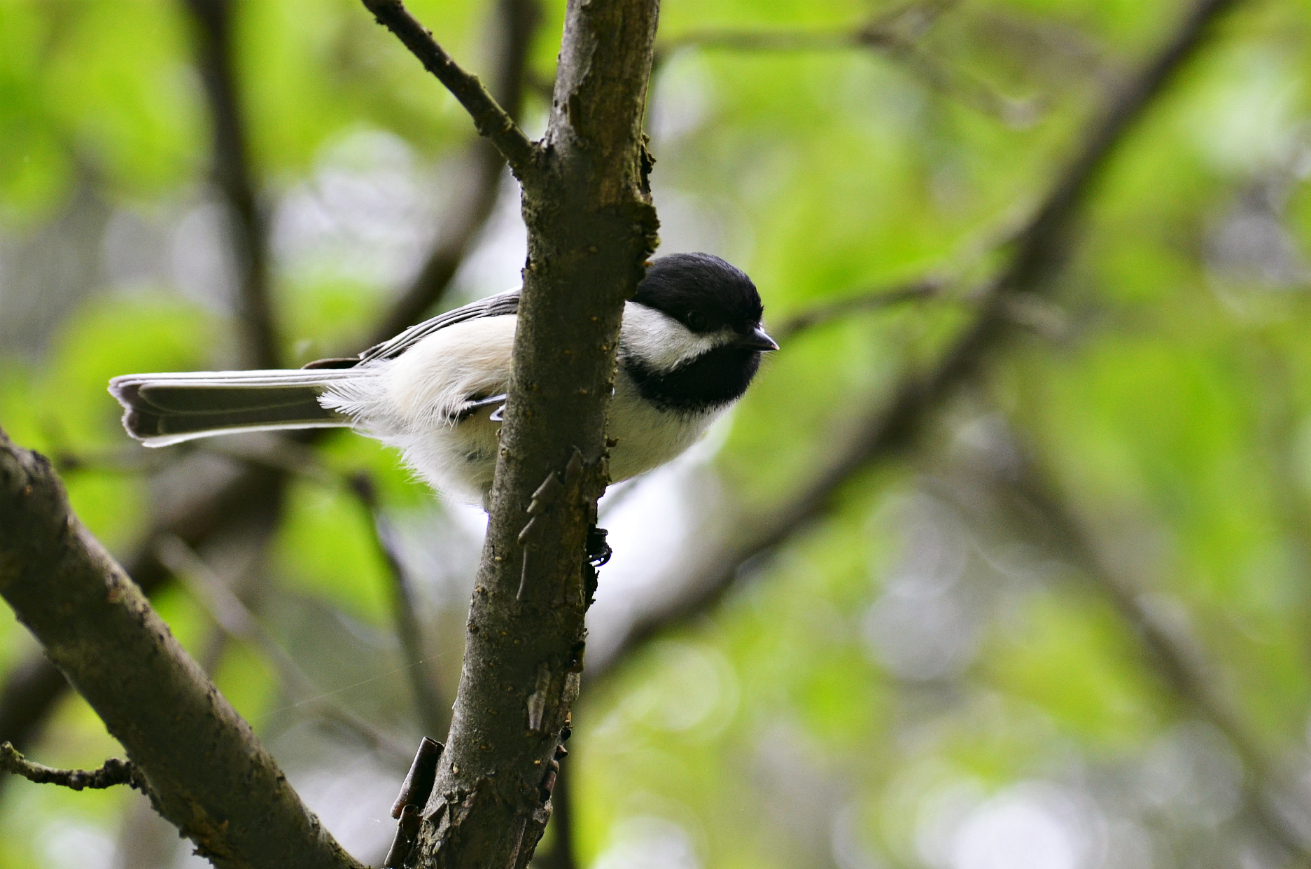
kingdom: Animalia
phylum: Chordata
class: Aves
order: Passeriformes
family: Paridae
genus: Poecile
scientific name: Poecile atricapillus
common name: Black-capped chickadee
